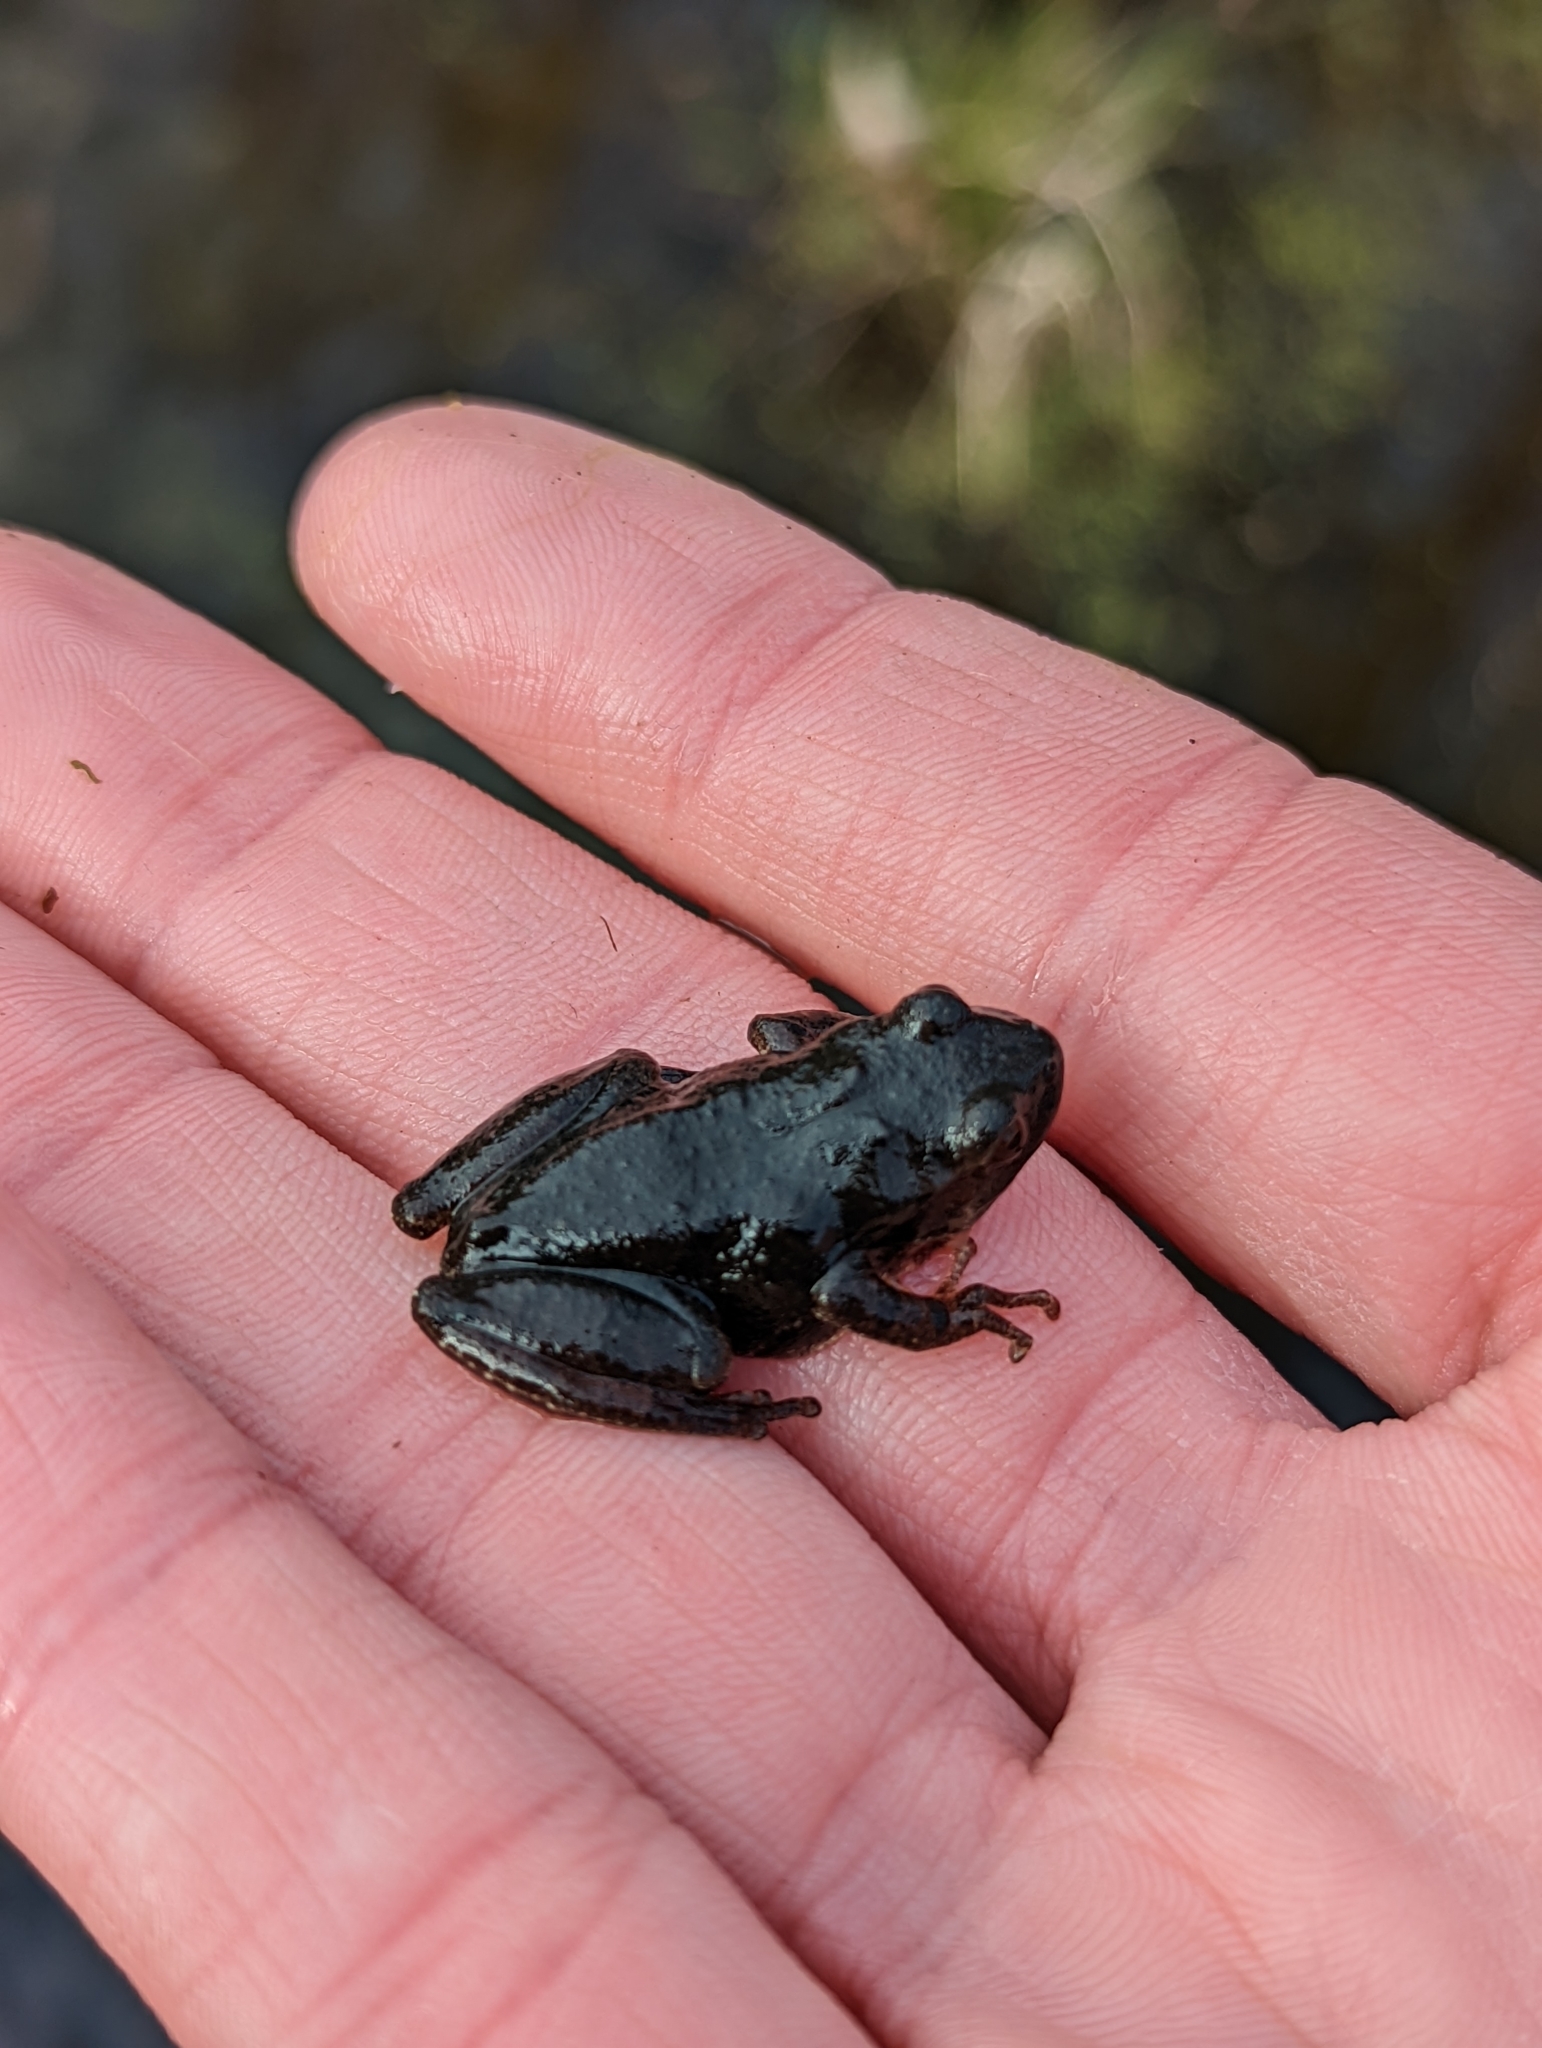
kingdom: Animalia
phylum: Chordata
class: Amphibia
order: Anura
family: Hylidae
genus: Pseudacris
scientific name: Pseudacris crucifer
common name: Spring peeper
